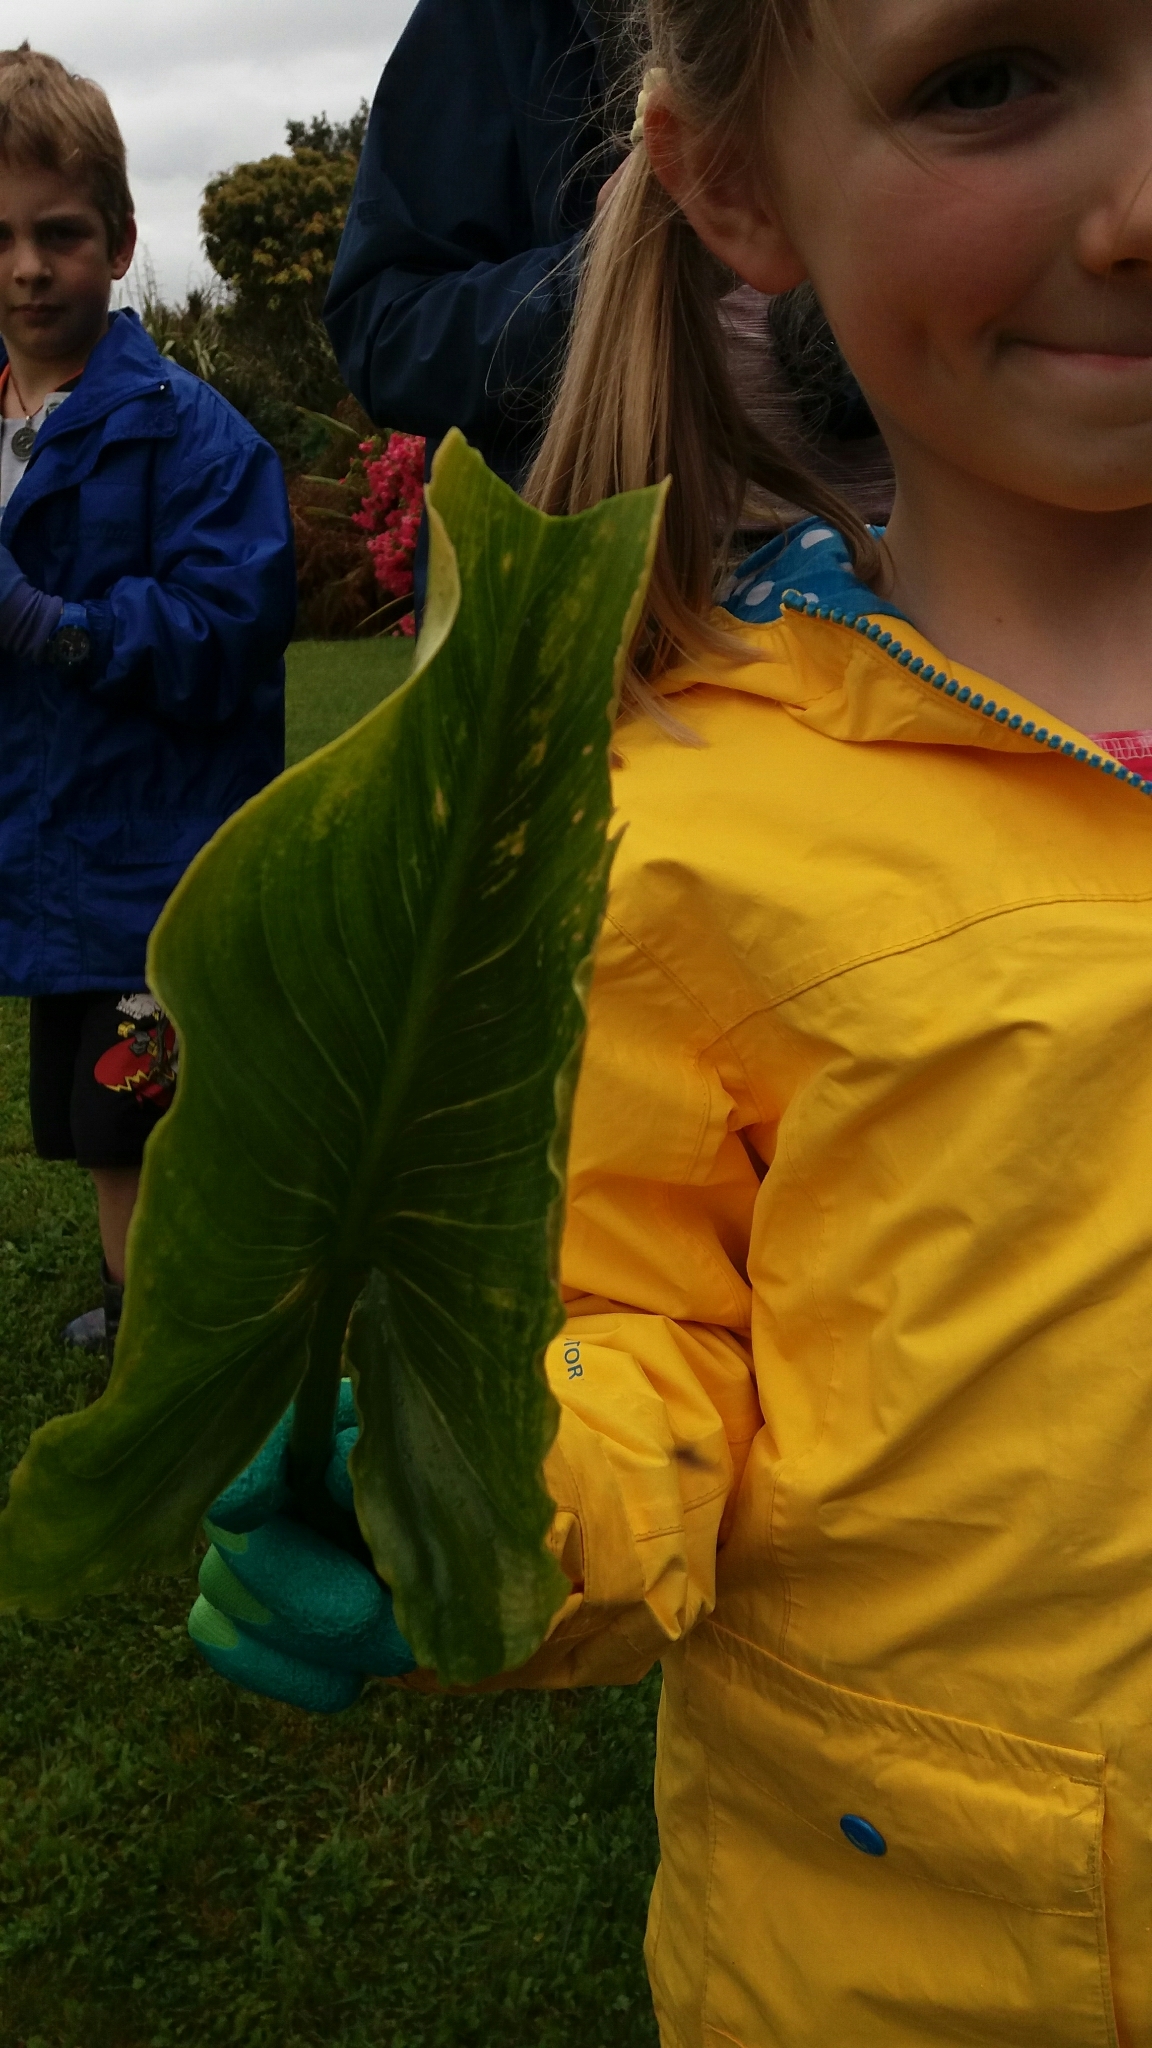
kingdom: Plantae
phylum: Tracheophyta
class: Liliopsida
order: Alismatales
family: Araceae
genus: Zantedeschia
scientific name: Zantedeschia aethiopica
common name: Altar-lily
